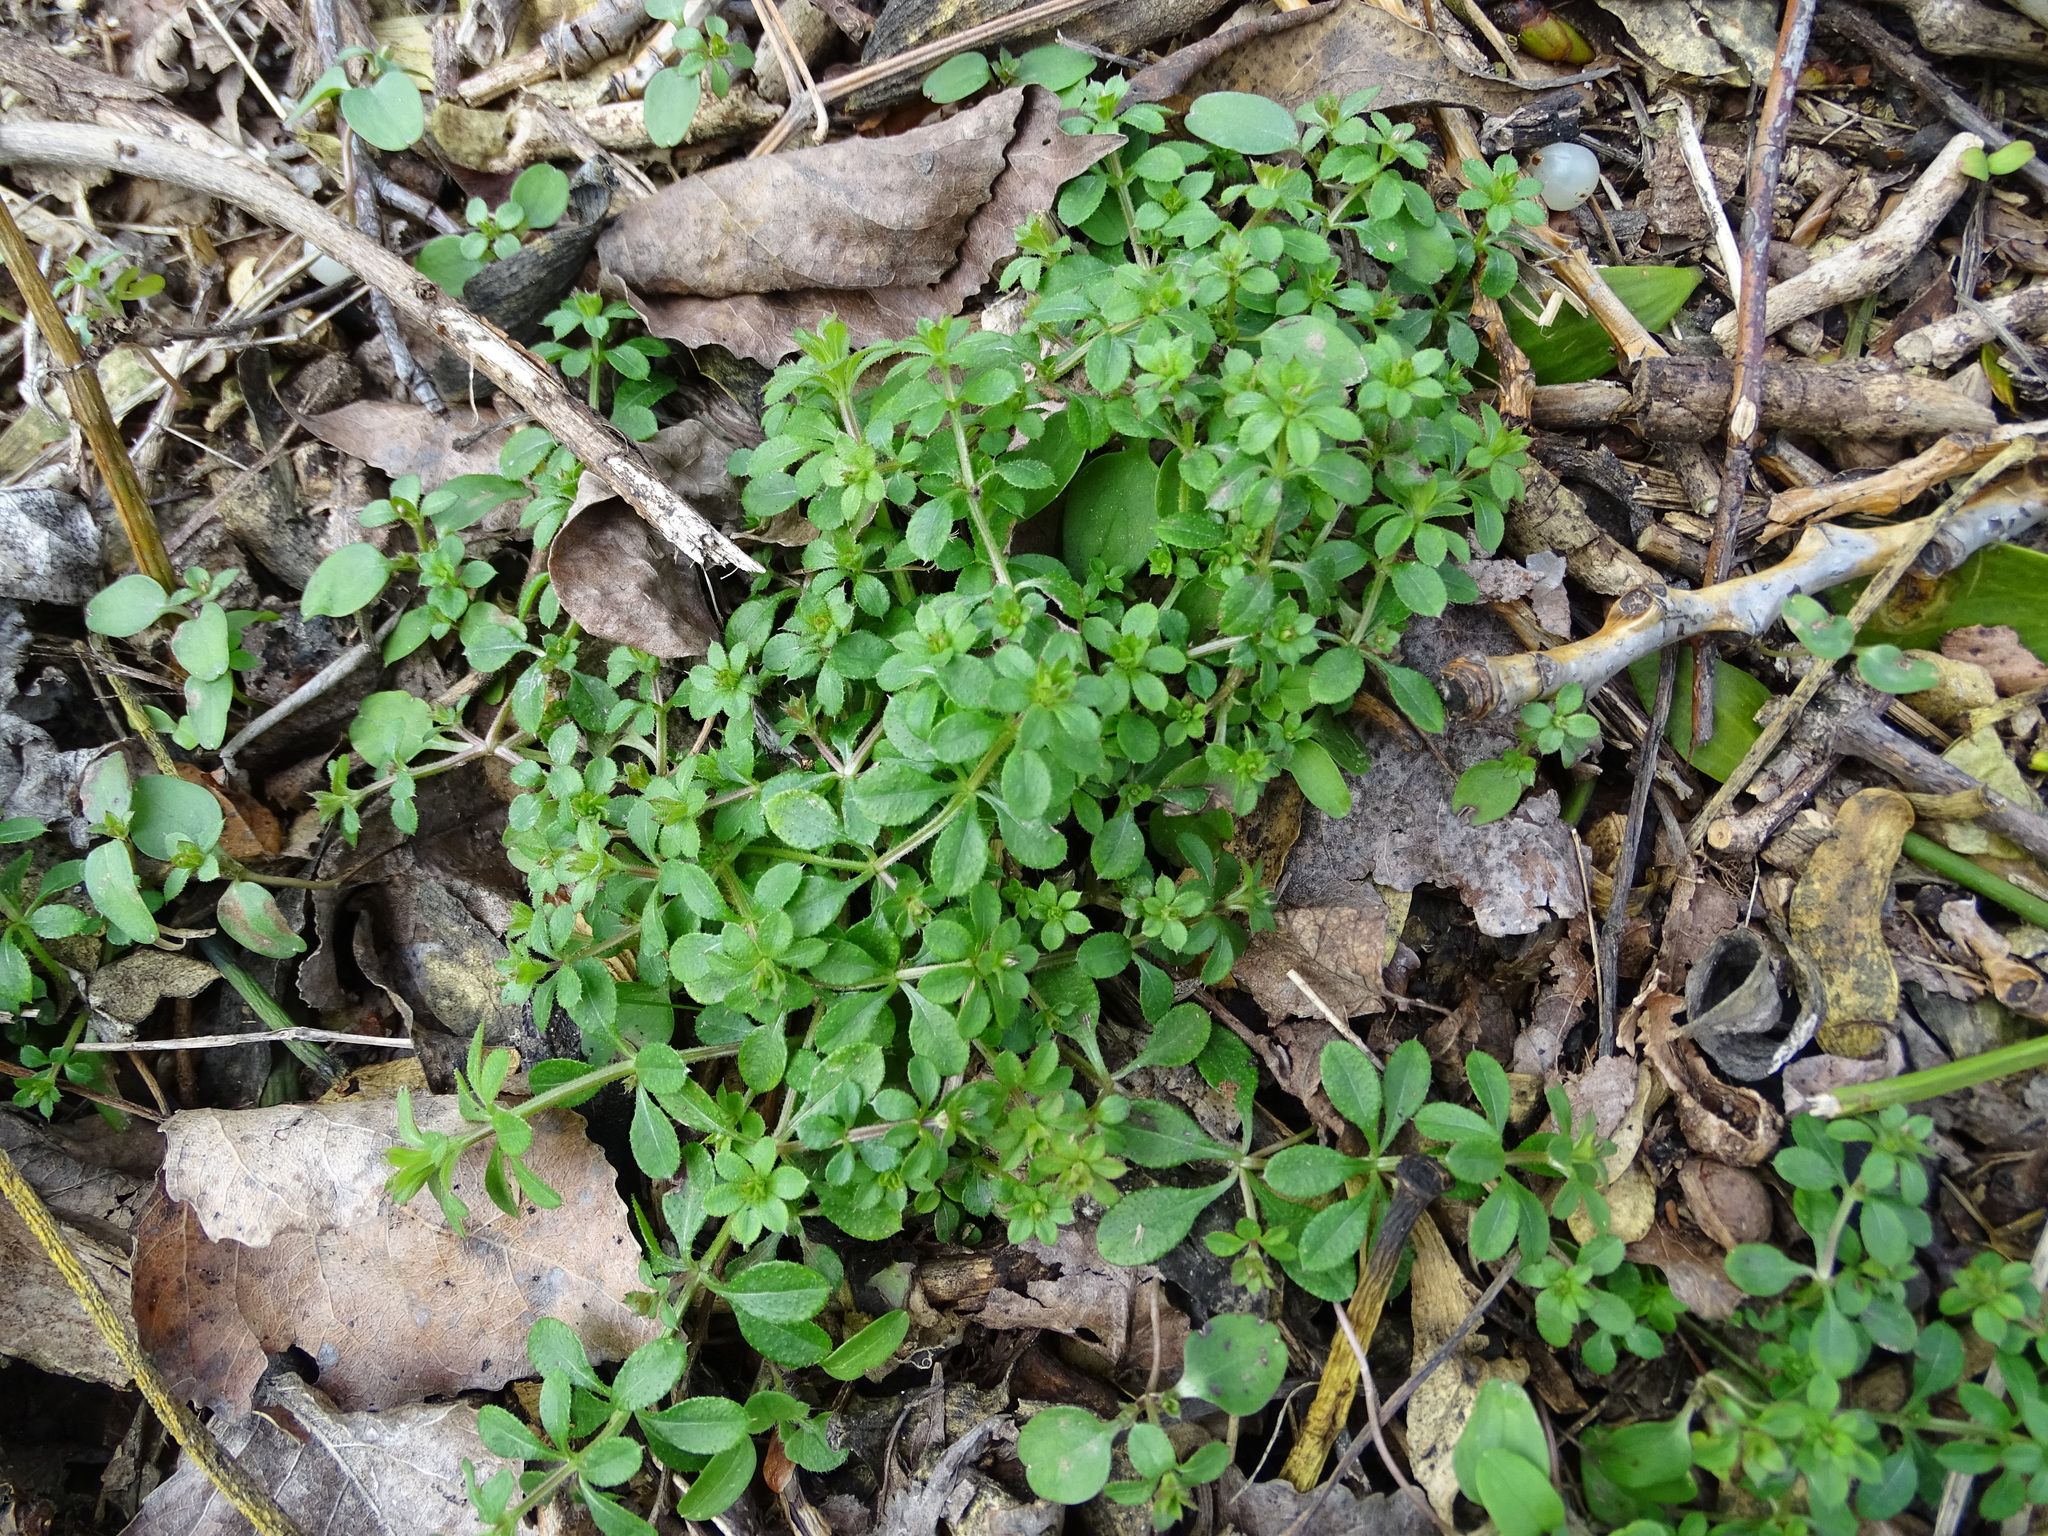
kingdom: Plantae
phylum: Tracheophyta
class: Magnoliopsida
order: Gentianales
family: Rubiaceae
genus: Galium
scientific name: Galium aparine
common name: Cleavers
